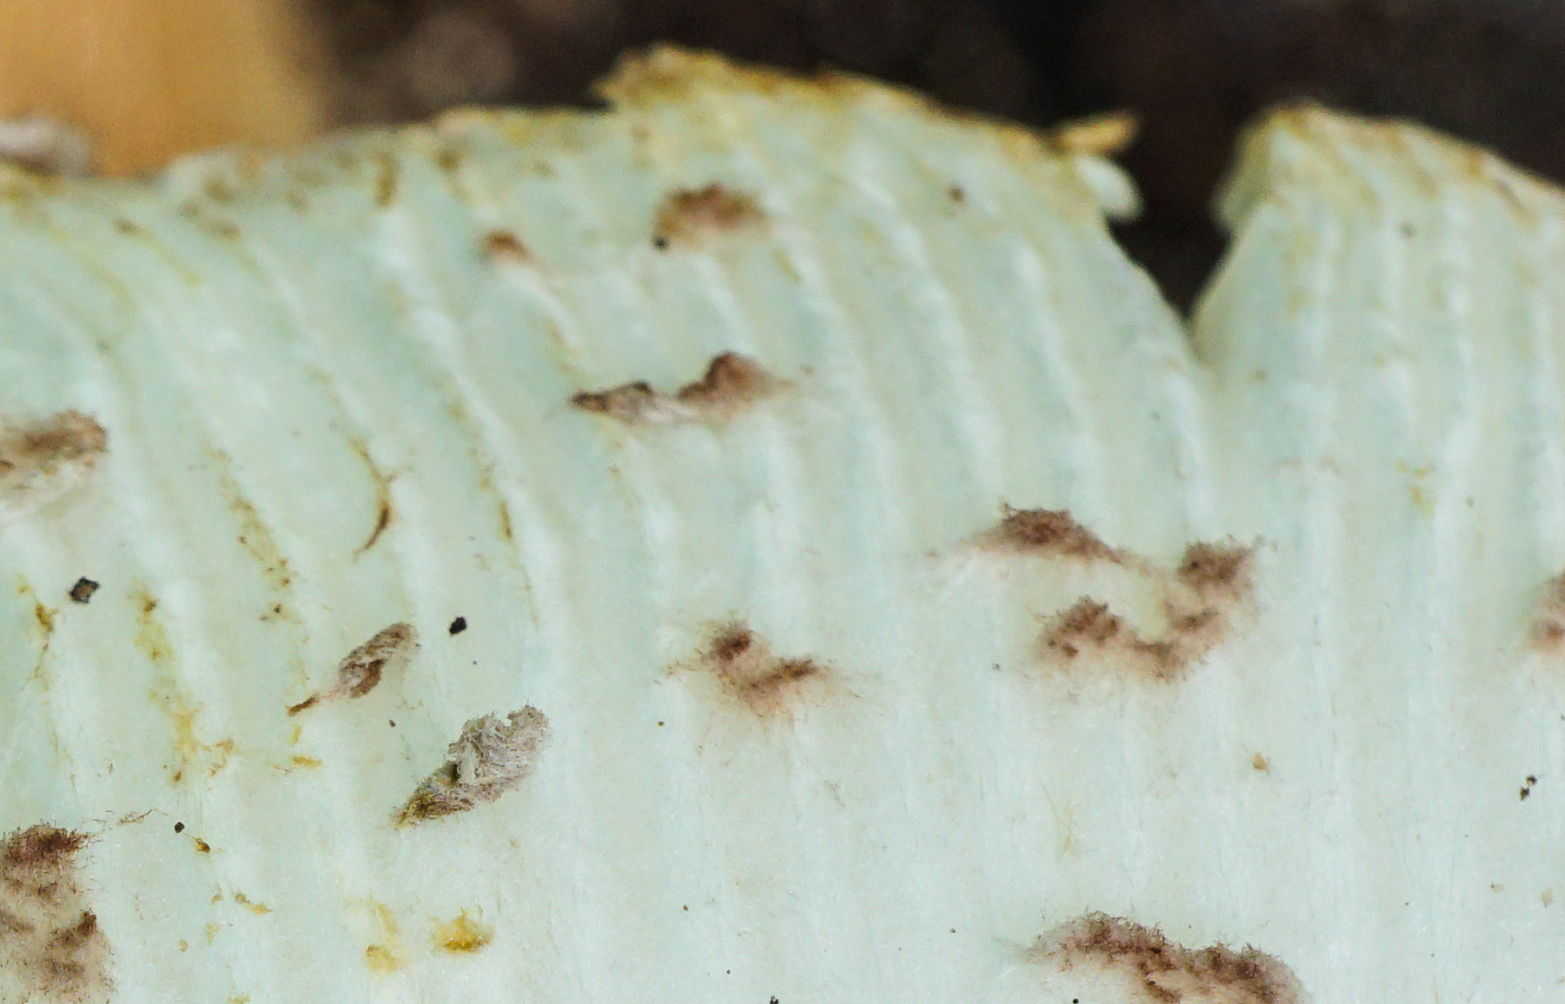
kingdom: Fungi
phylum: Basidiomycota
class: Agaricomycetes
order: Agaricales
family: Agaricaceae
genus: Leucoagaricus
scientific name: Leucoagaricus americanus
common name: Reddening lepiota
